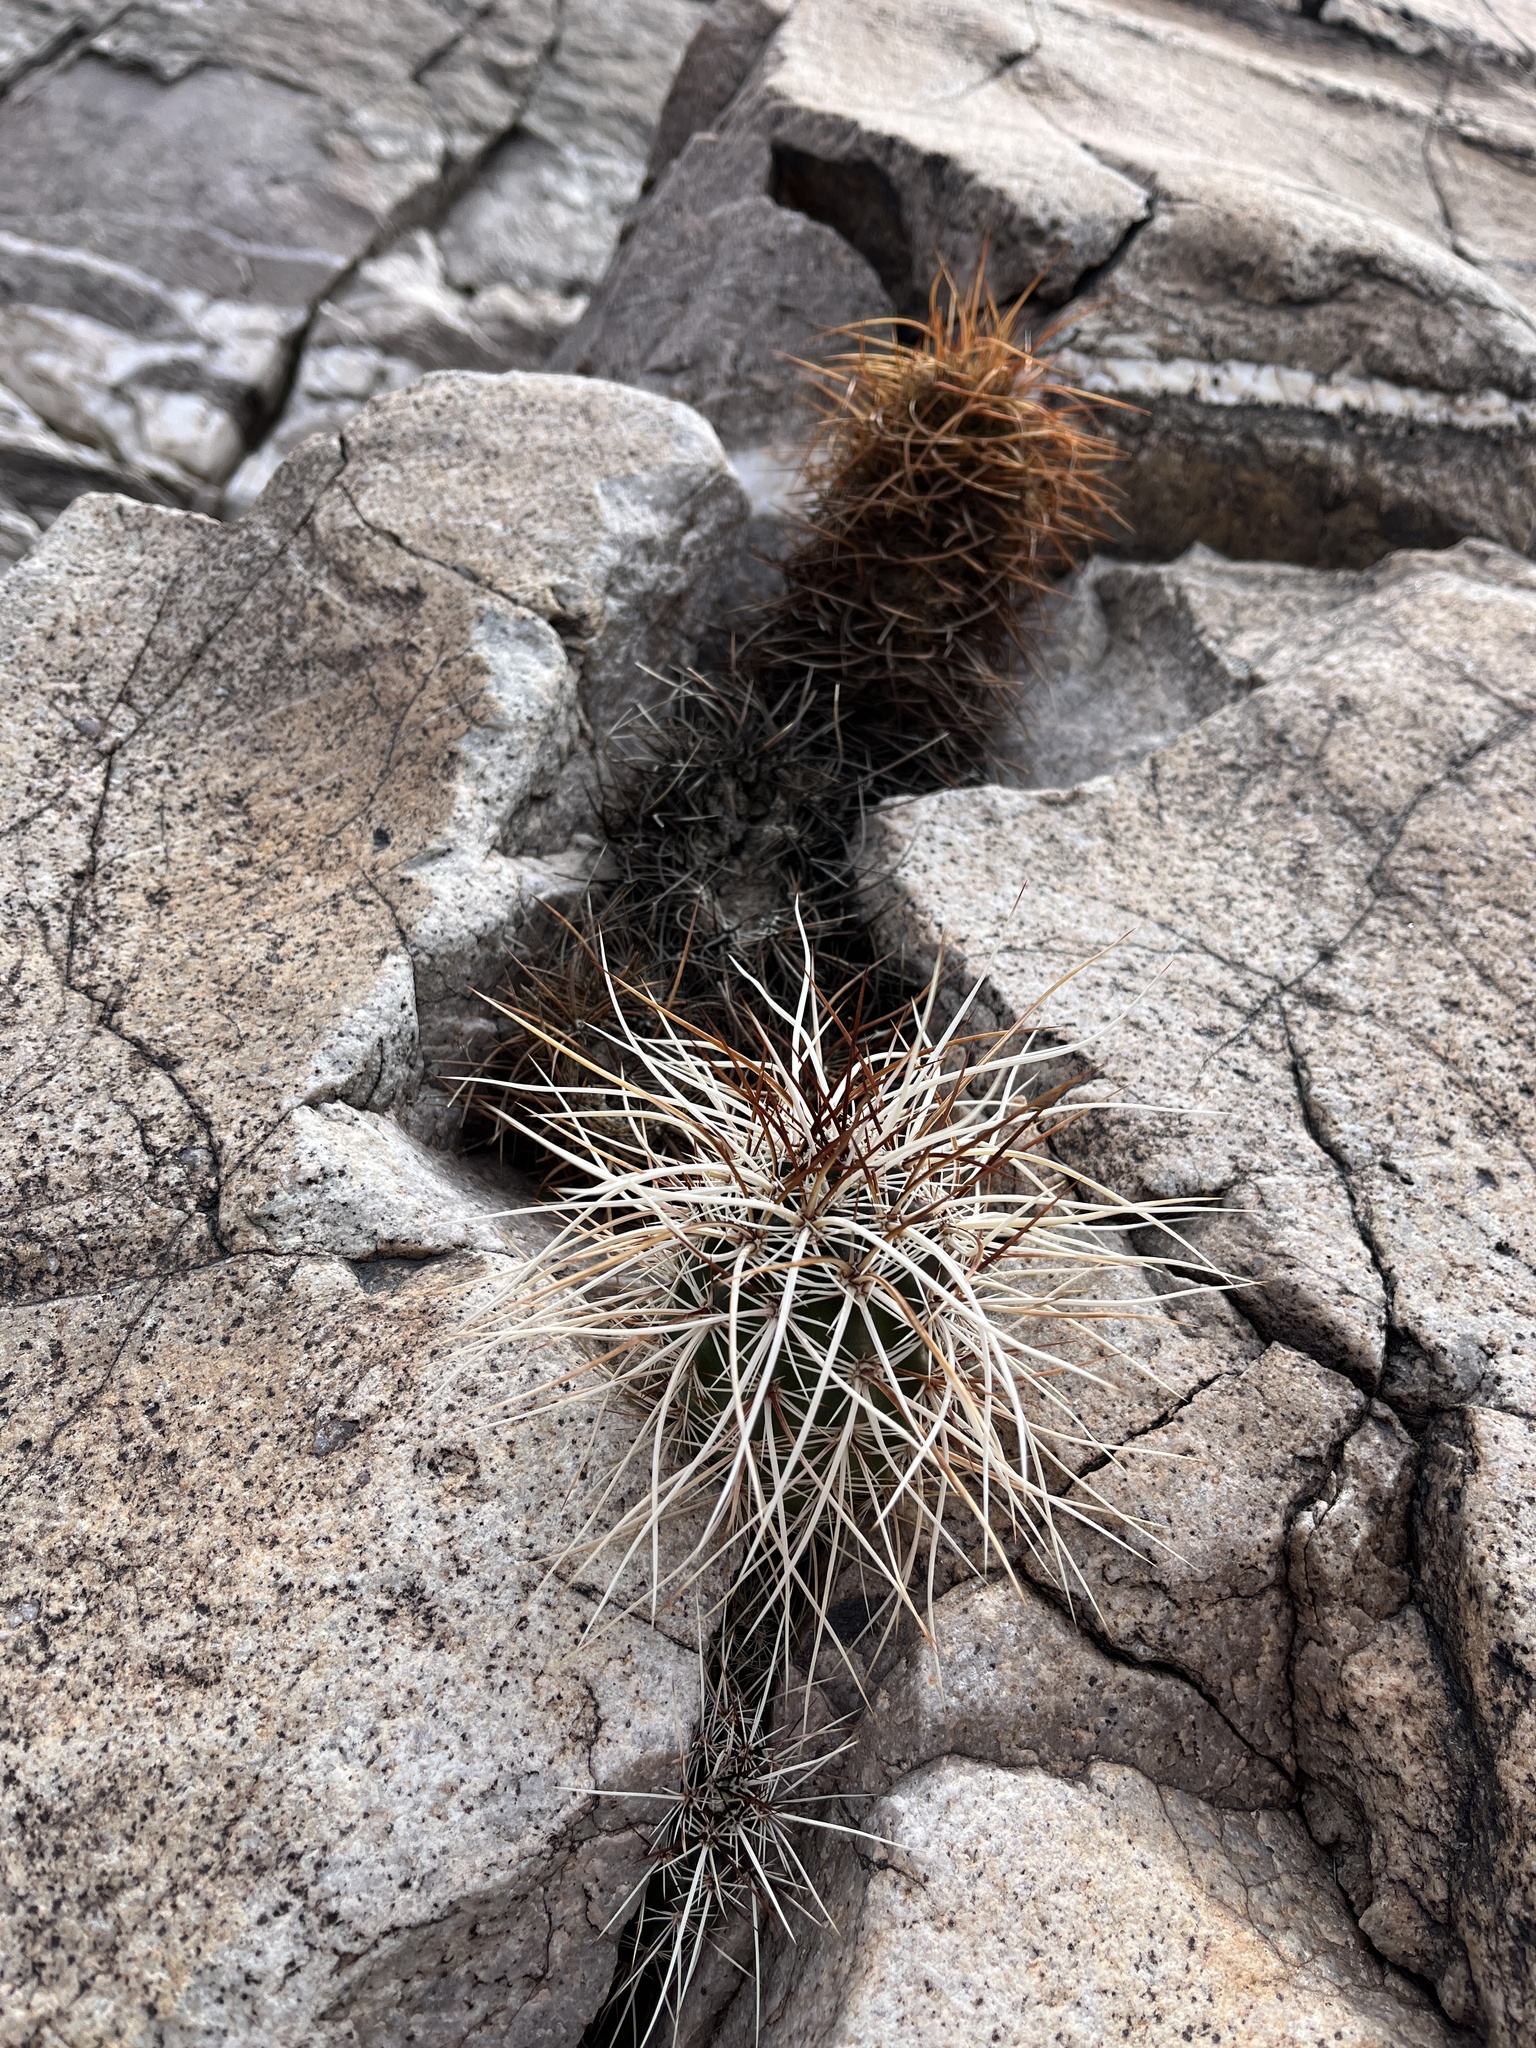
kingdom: Plantae
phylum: Tracheophyta
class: Magnoliopsida
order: Caryophyllales
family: Cactaceae
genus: Echinocereus
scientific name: Echinocereus engelmannii
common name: Engelmann's hedgehog cactus
